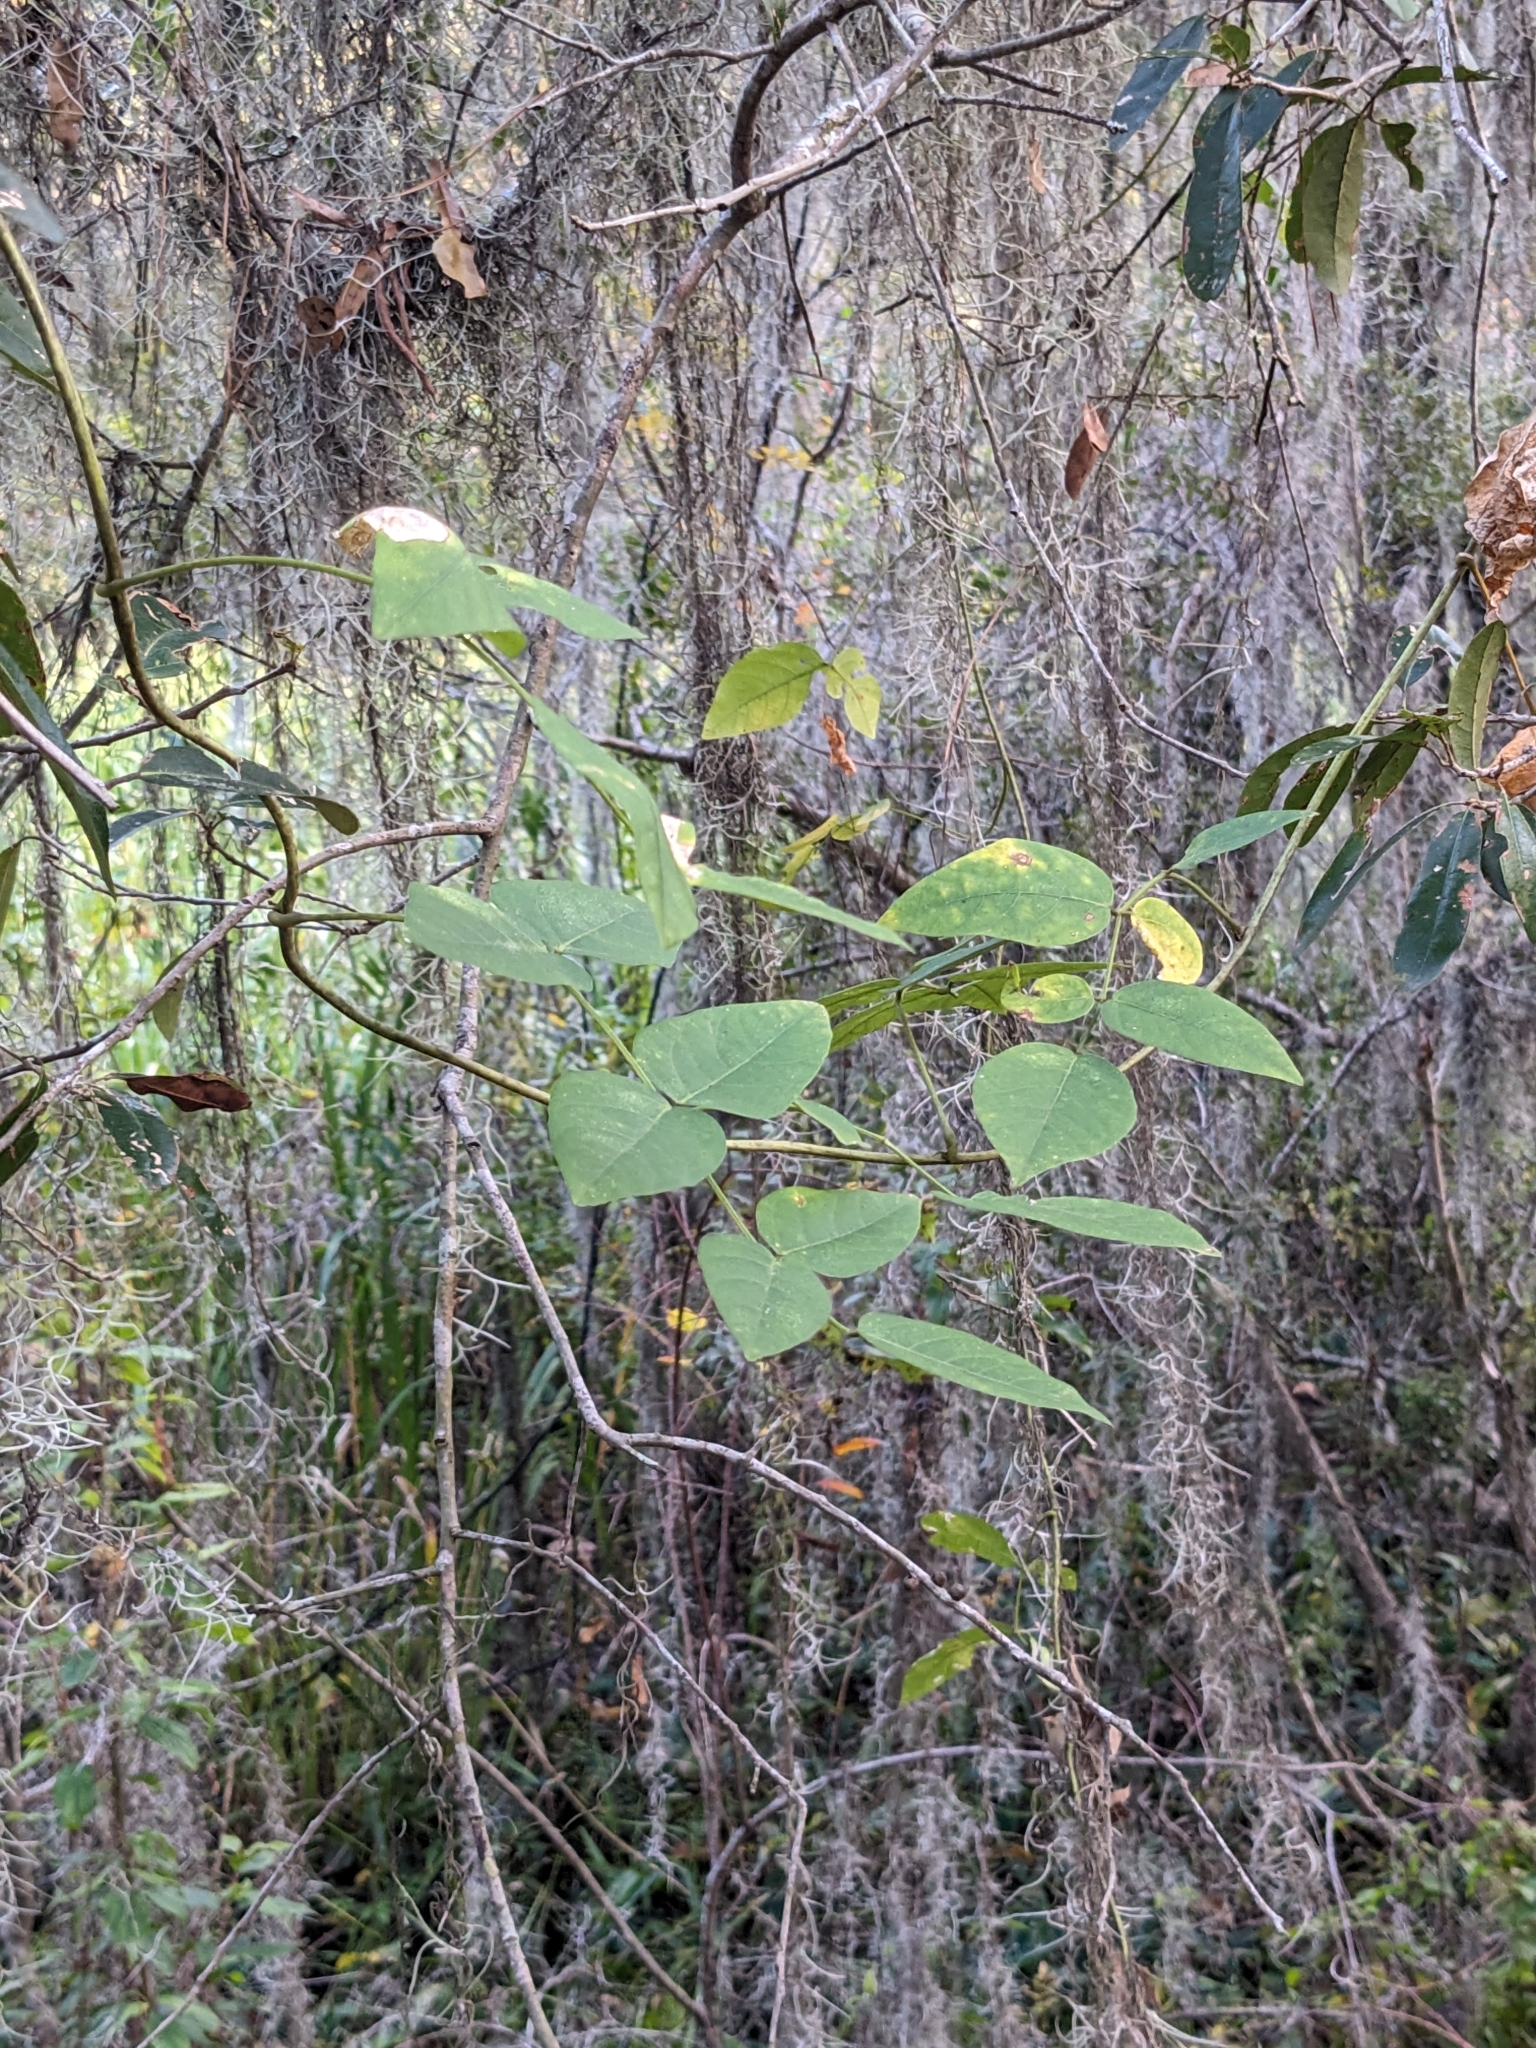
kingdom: Plantae
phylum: Tracheophyta
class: Magnoliopsida
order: Fabales
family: Fabaceae
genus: Apios
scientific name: Apios americana
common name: American potato-bean
